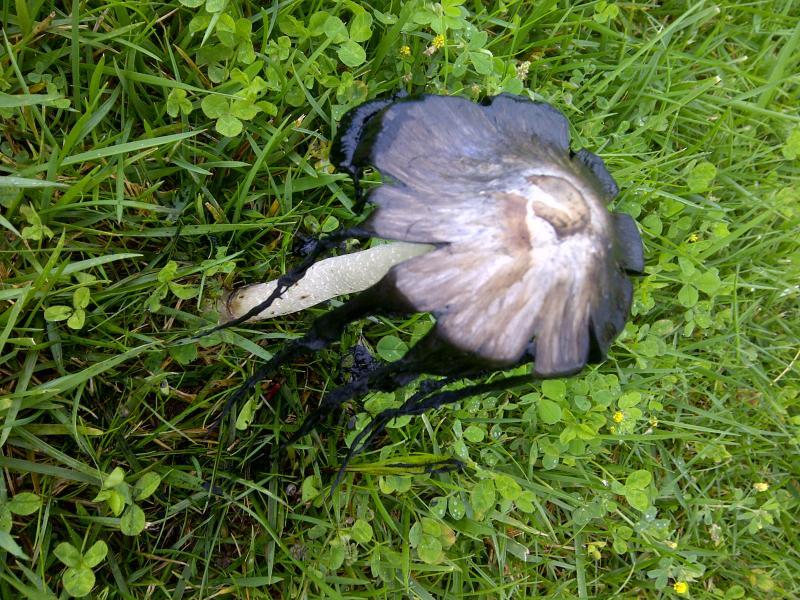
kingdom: Fungi
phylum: Basidiomycota
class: Agaricomycetes
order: Agaricales
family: Agaricaceae
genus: Coprinus
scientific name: Coprinus comatus
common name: Lawyer's wig
